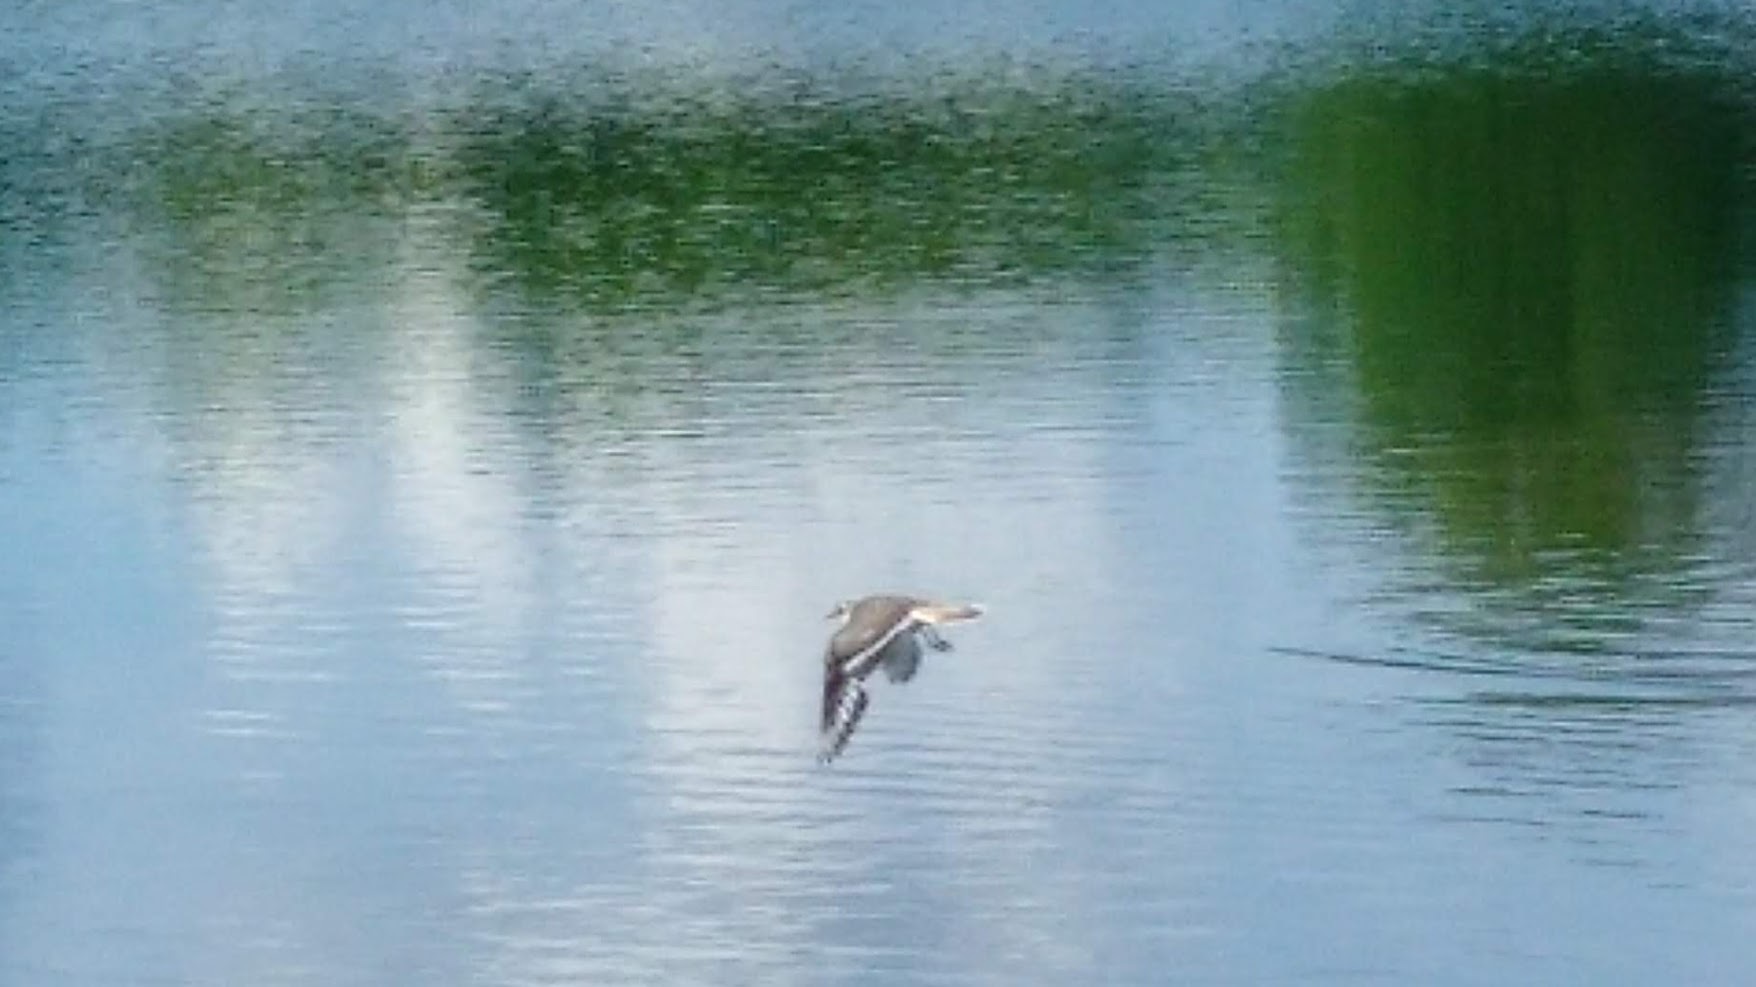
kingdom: Animalia
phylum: Chordata
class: Aves
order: Charadriiformes
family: Charadriidae
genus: Charadrius
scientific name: Charadrius vociferus
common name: Killdeer
